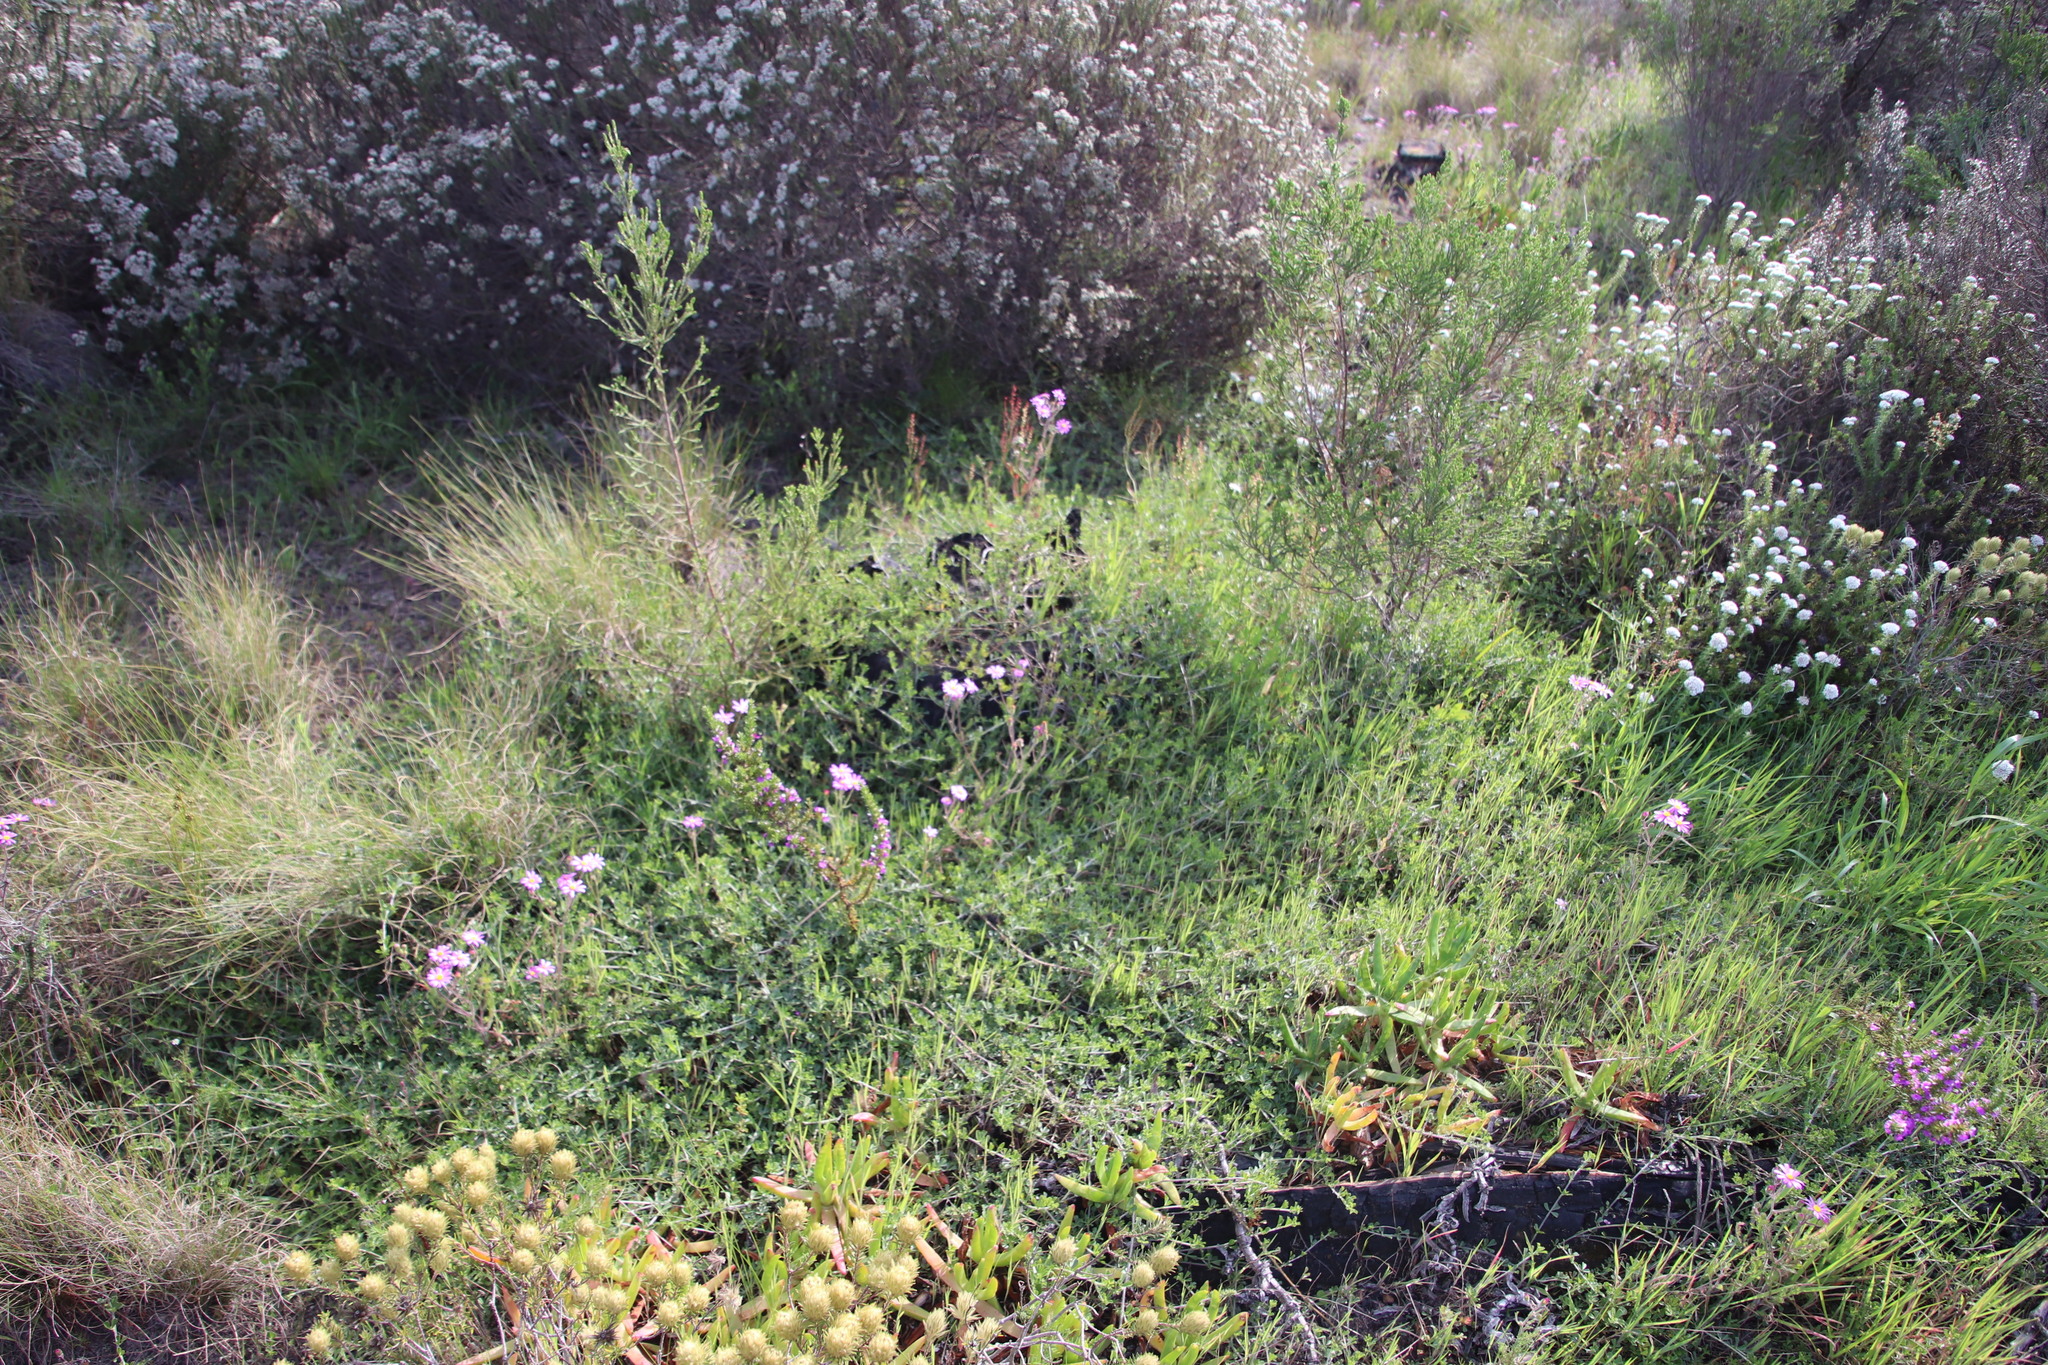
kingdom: Plantae
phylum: Tracheophyta
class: Magnoliopsida
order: Fabales
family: Fabaceae
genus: Psoralea
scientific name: Psoralea
